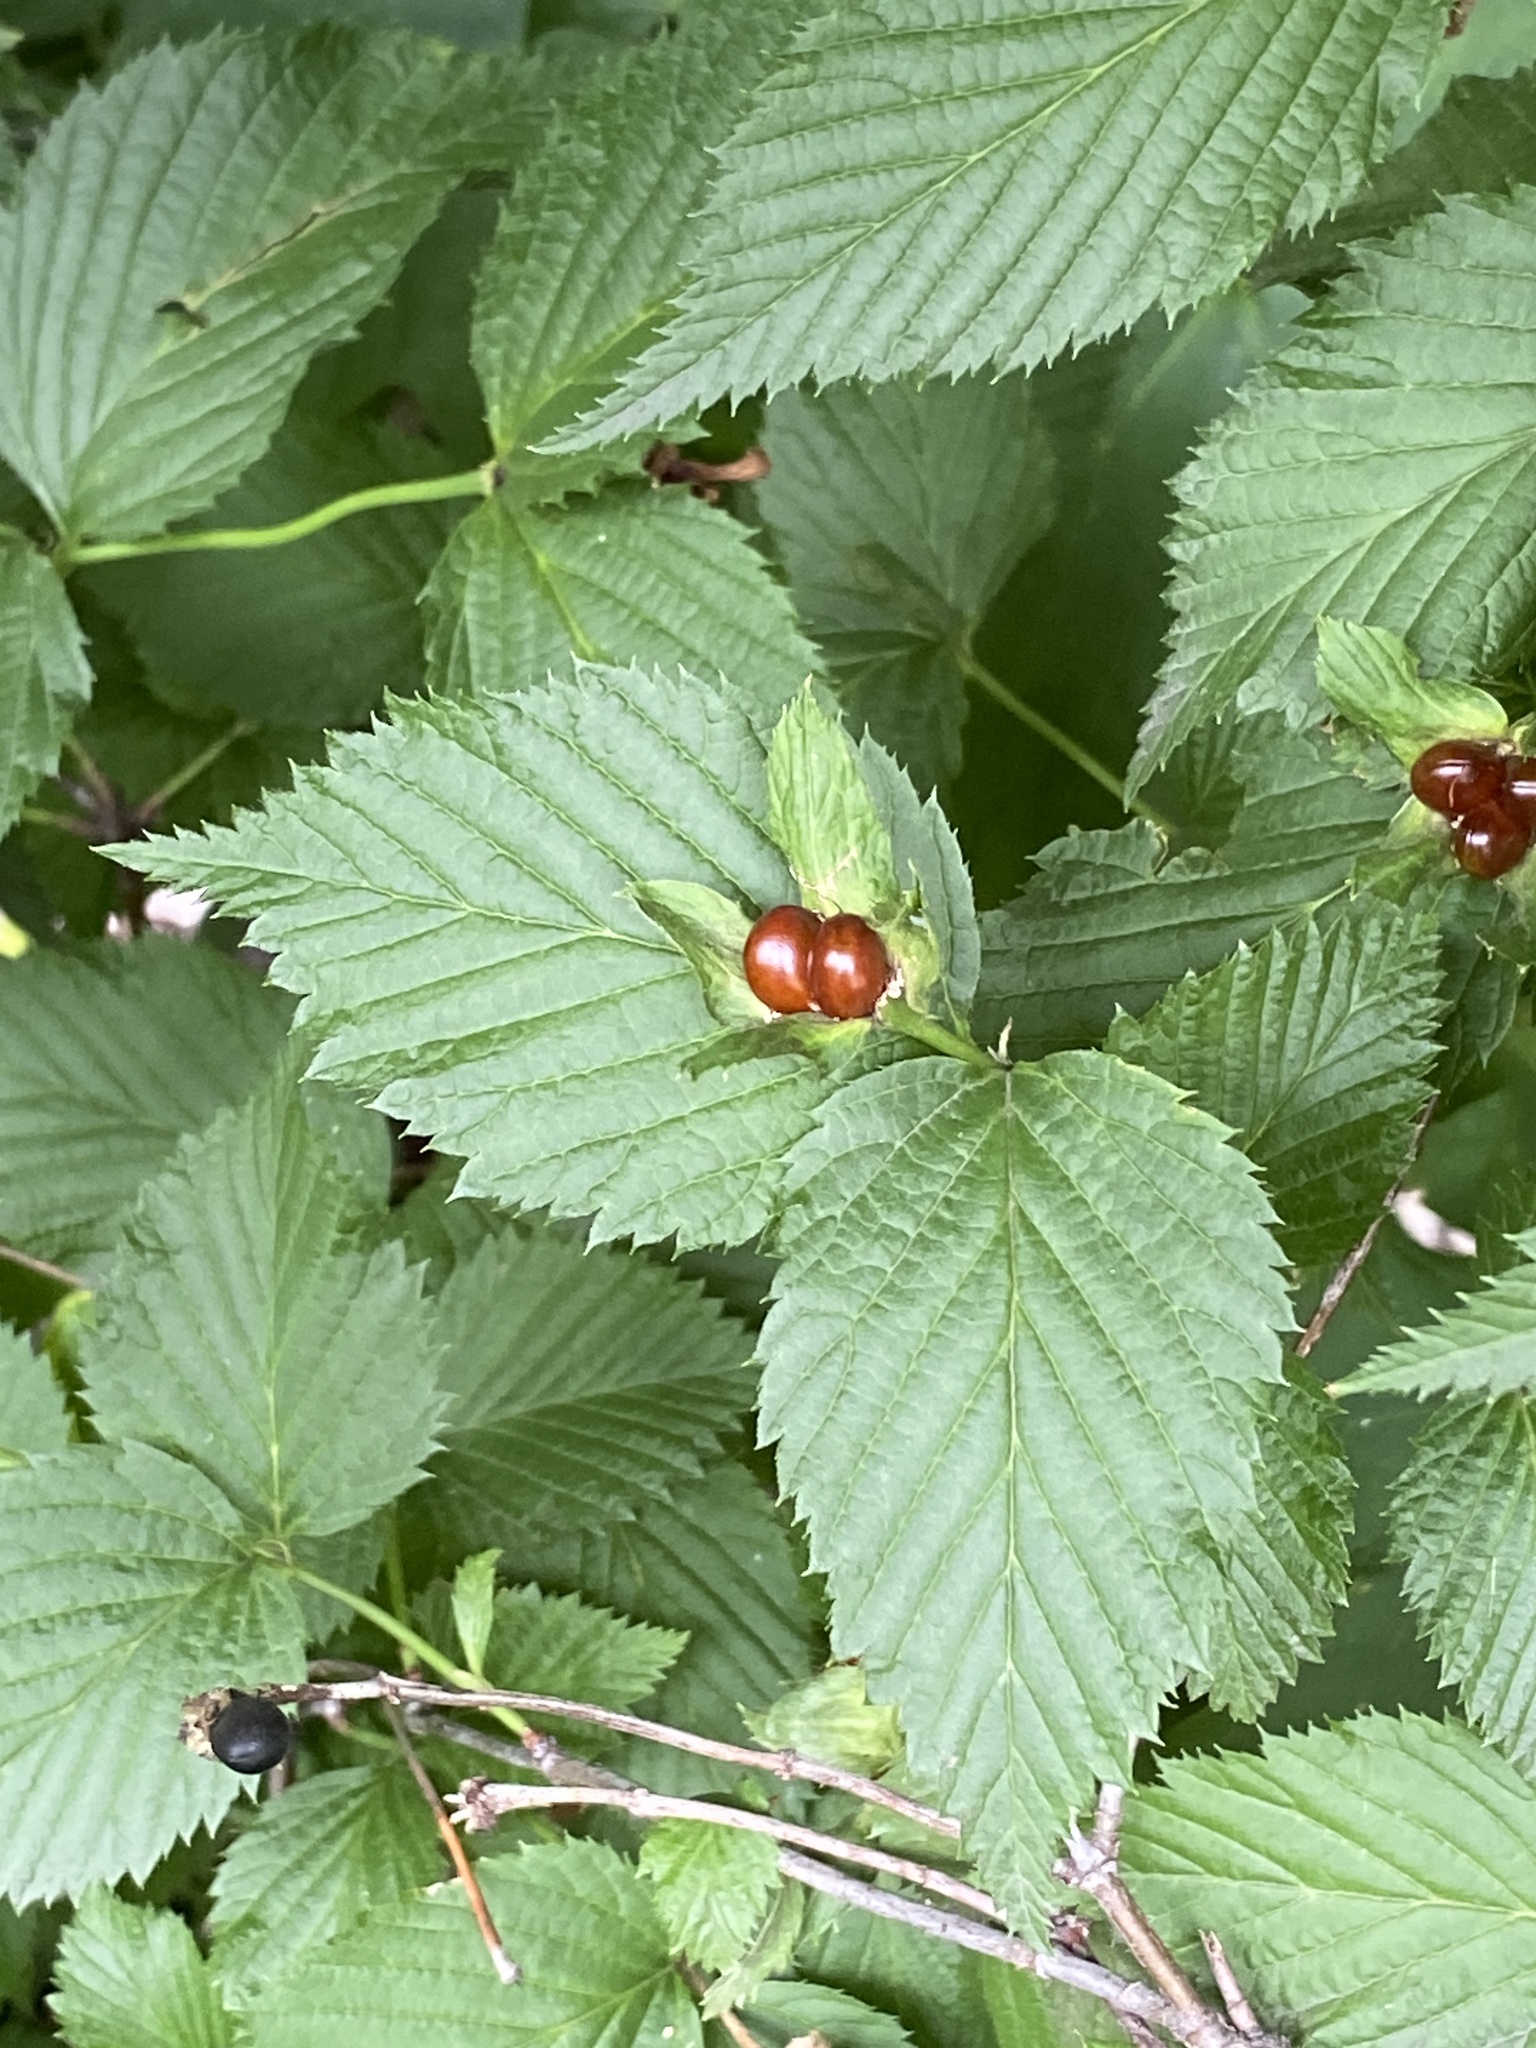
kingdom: Plantae
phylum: Tracheophyta
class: Magnoliopsida
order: Rosales
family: Rosaceae
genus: Rhodotypos
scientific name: Rhodotypos scandens
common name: Jetbead
